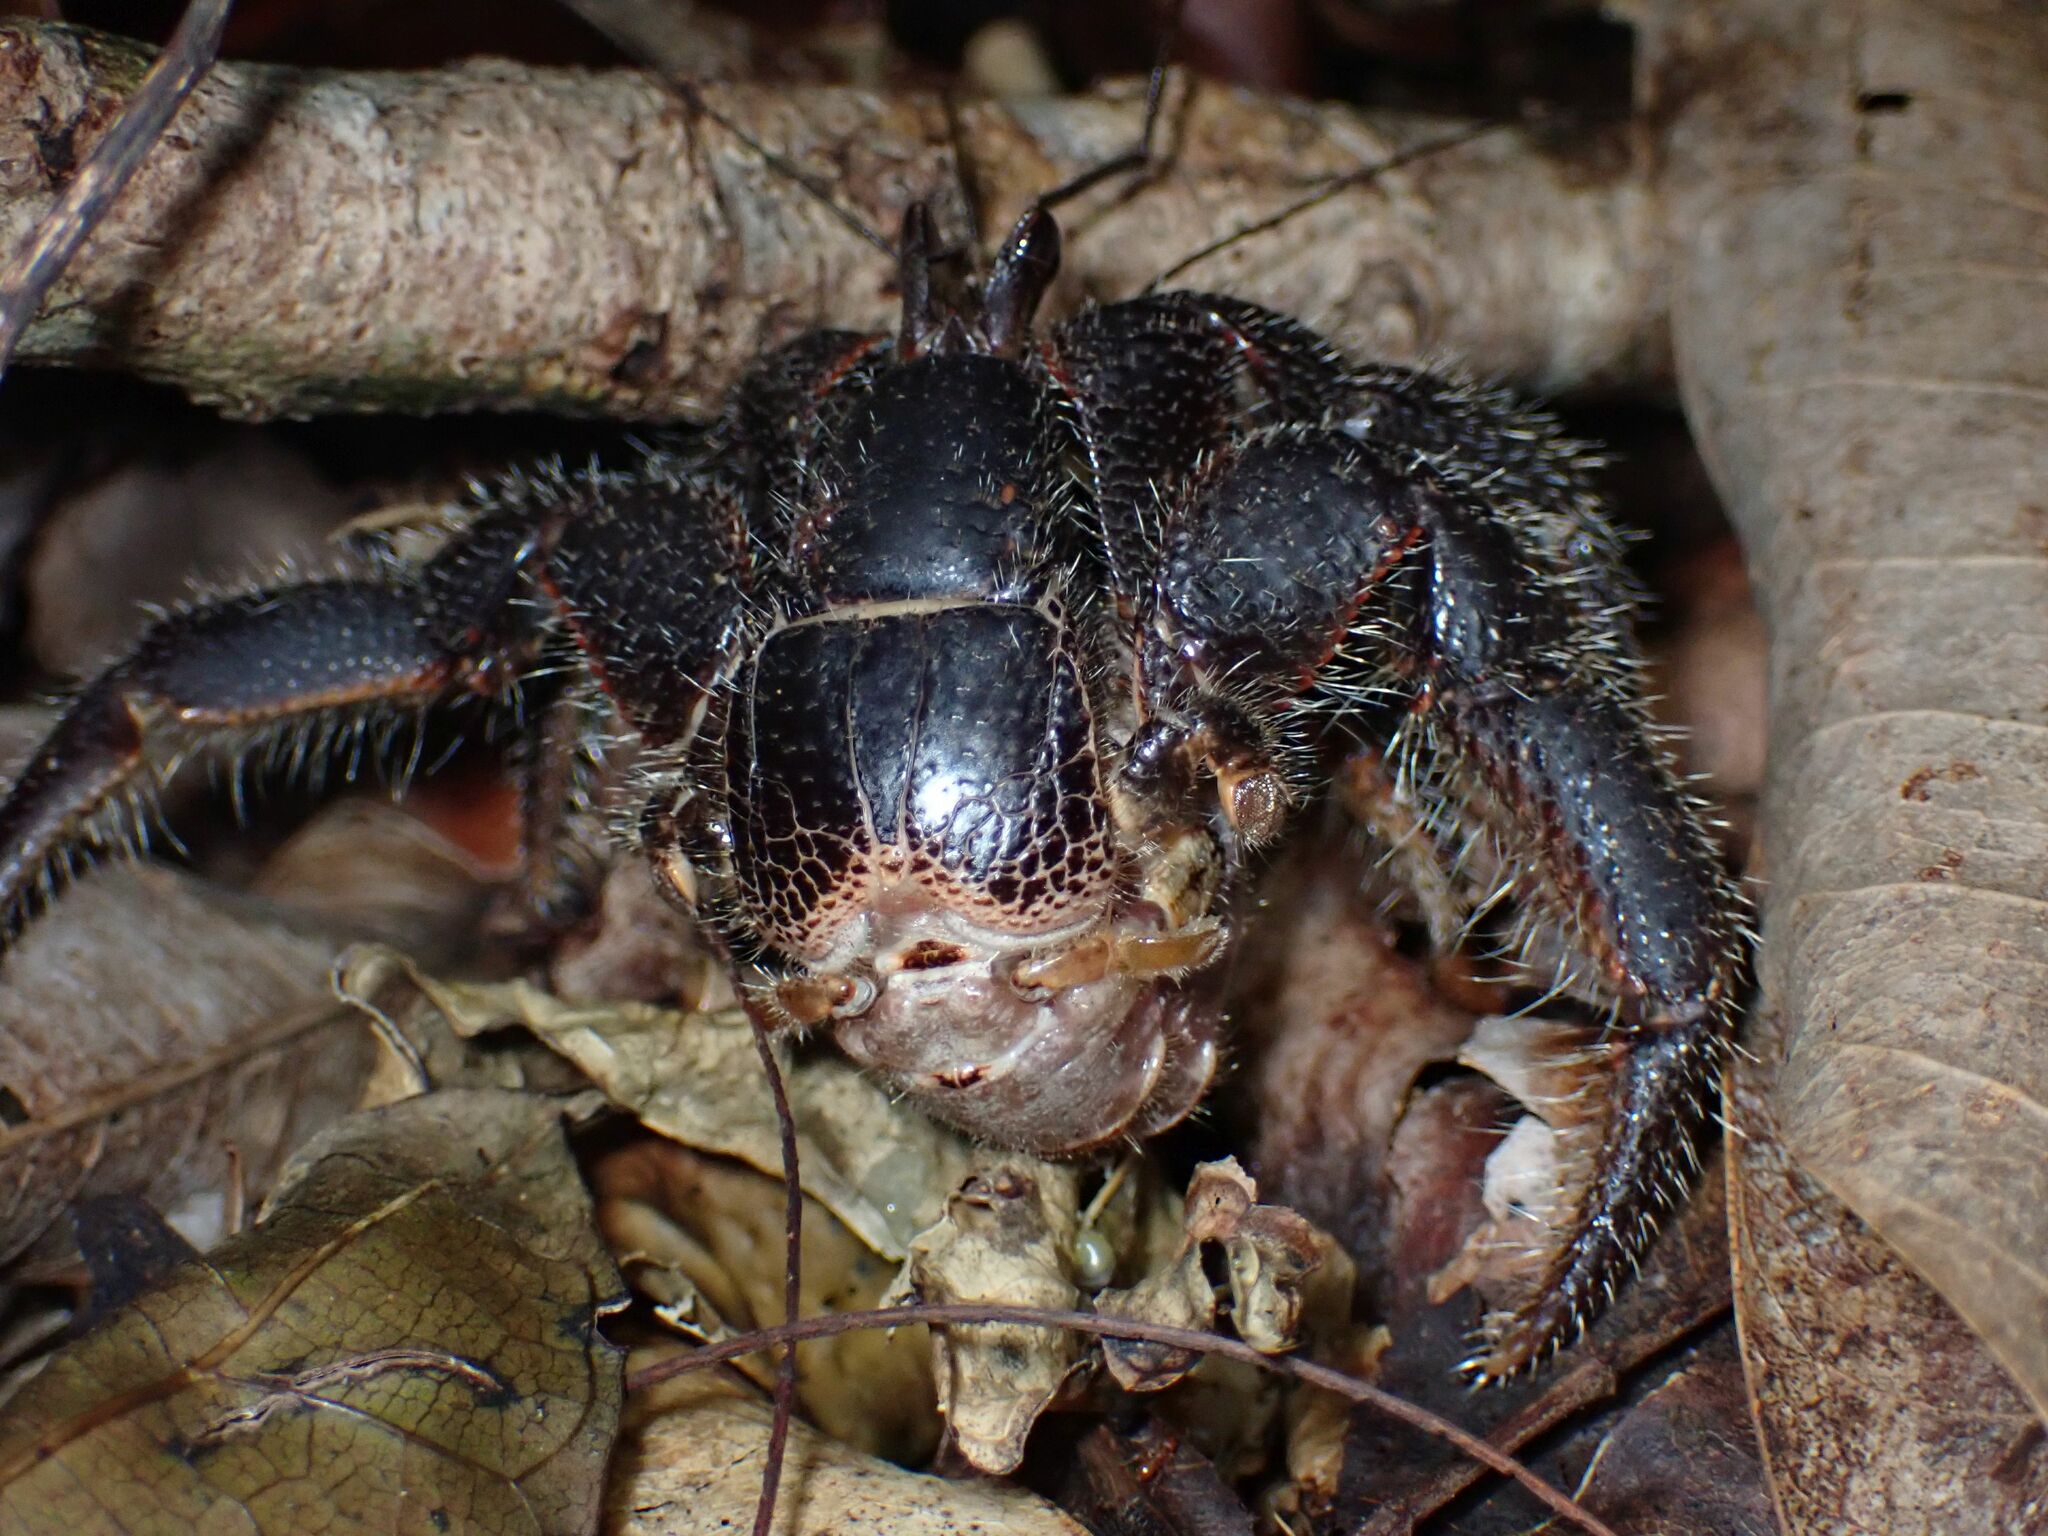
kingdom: Animalia
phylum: Arthropoda
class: Malacostraca
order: Decapoda
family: Coenobitidae
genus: Coenobita
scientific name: Coenobita spinosus
